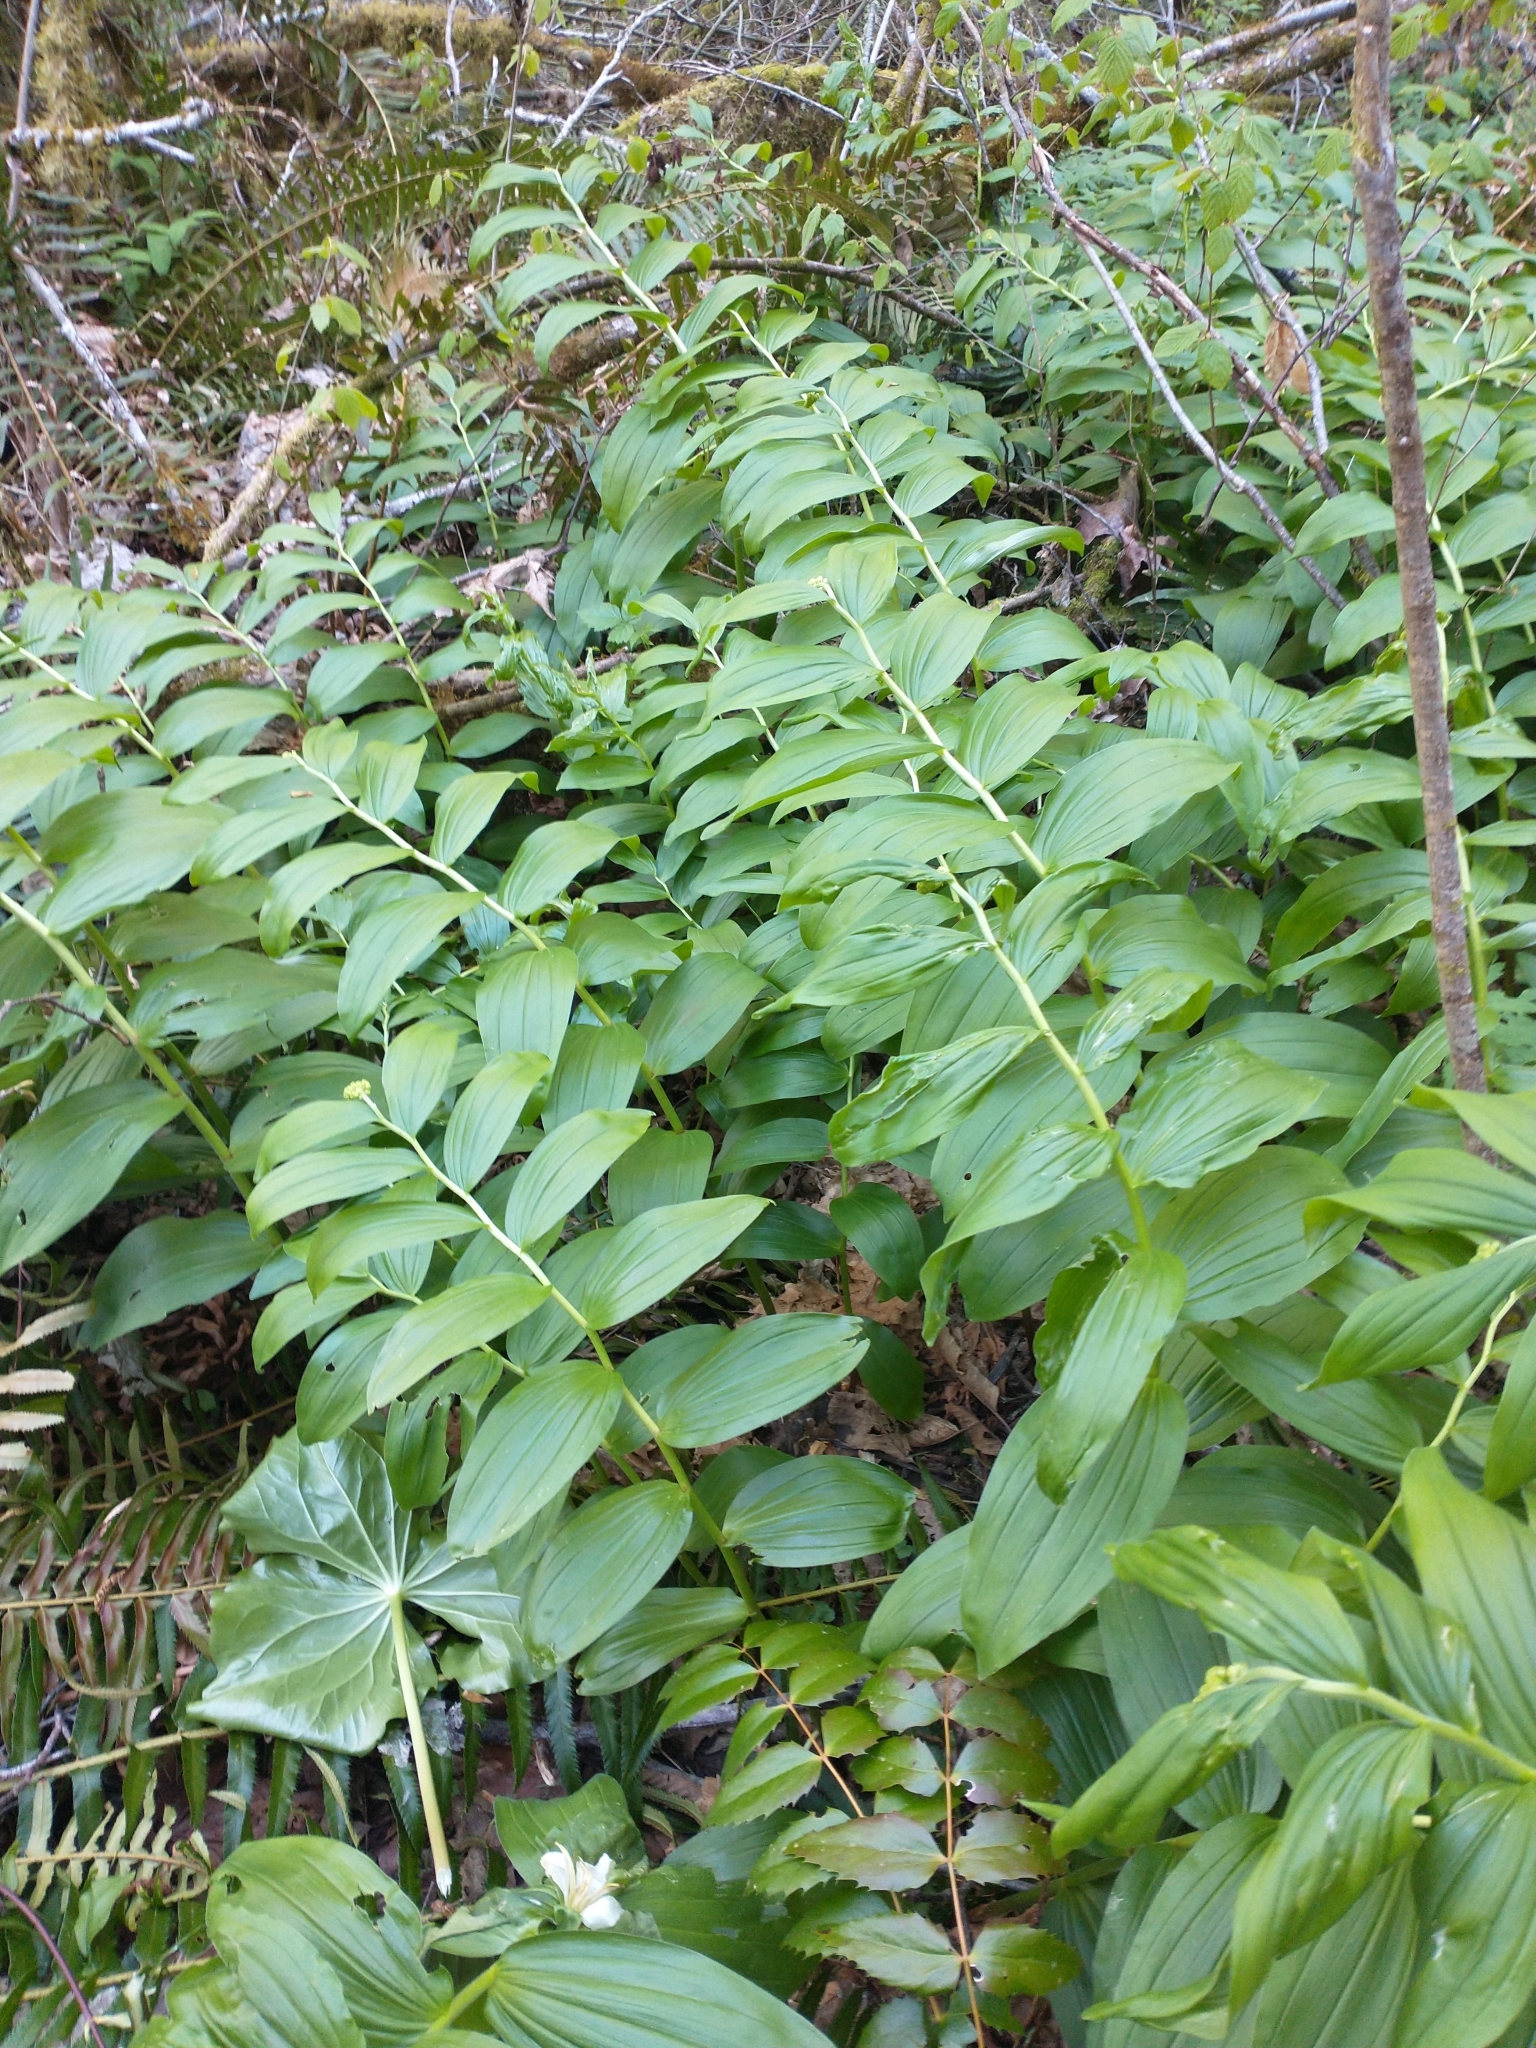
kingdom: Plantae
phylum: Tracheophyta
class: Liliopsida
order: Asparagales
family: Asparagaceae
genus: Maianthemum
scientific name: Maianthemum racemosum
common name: False spikenard
